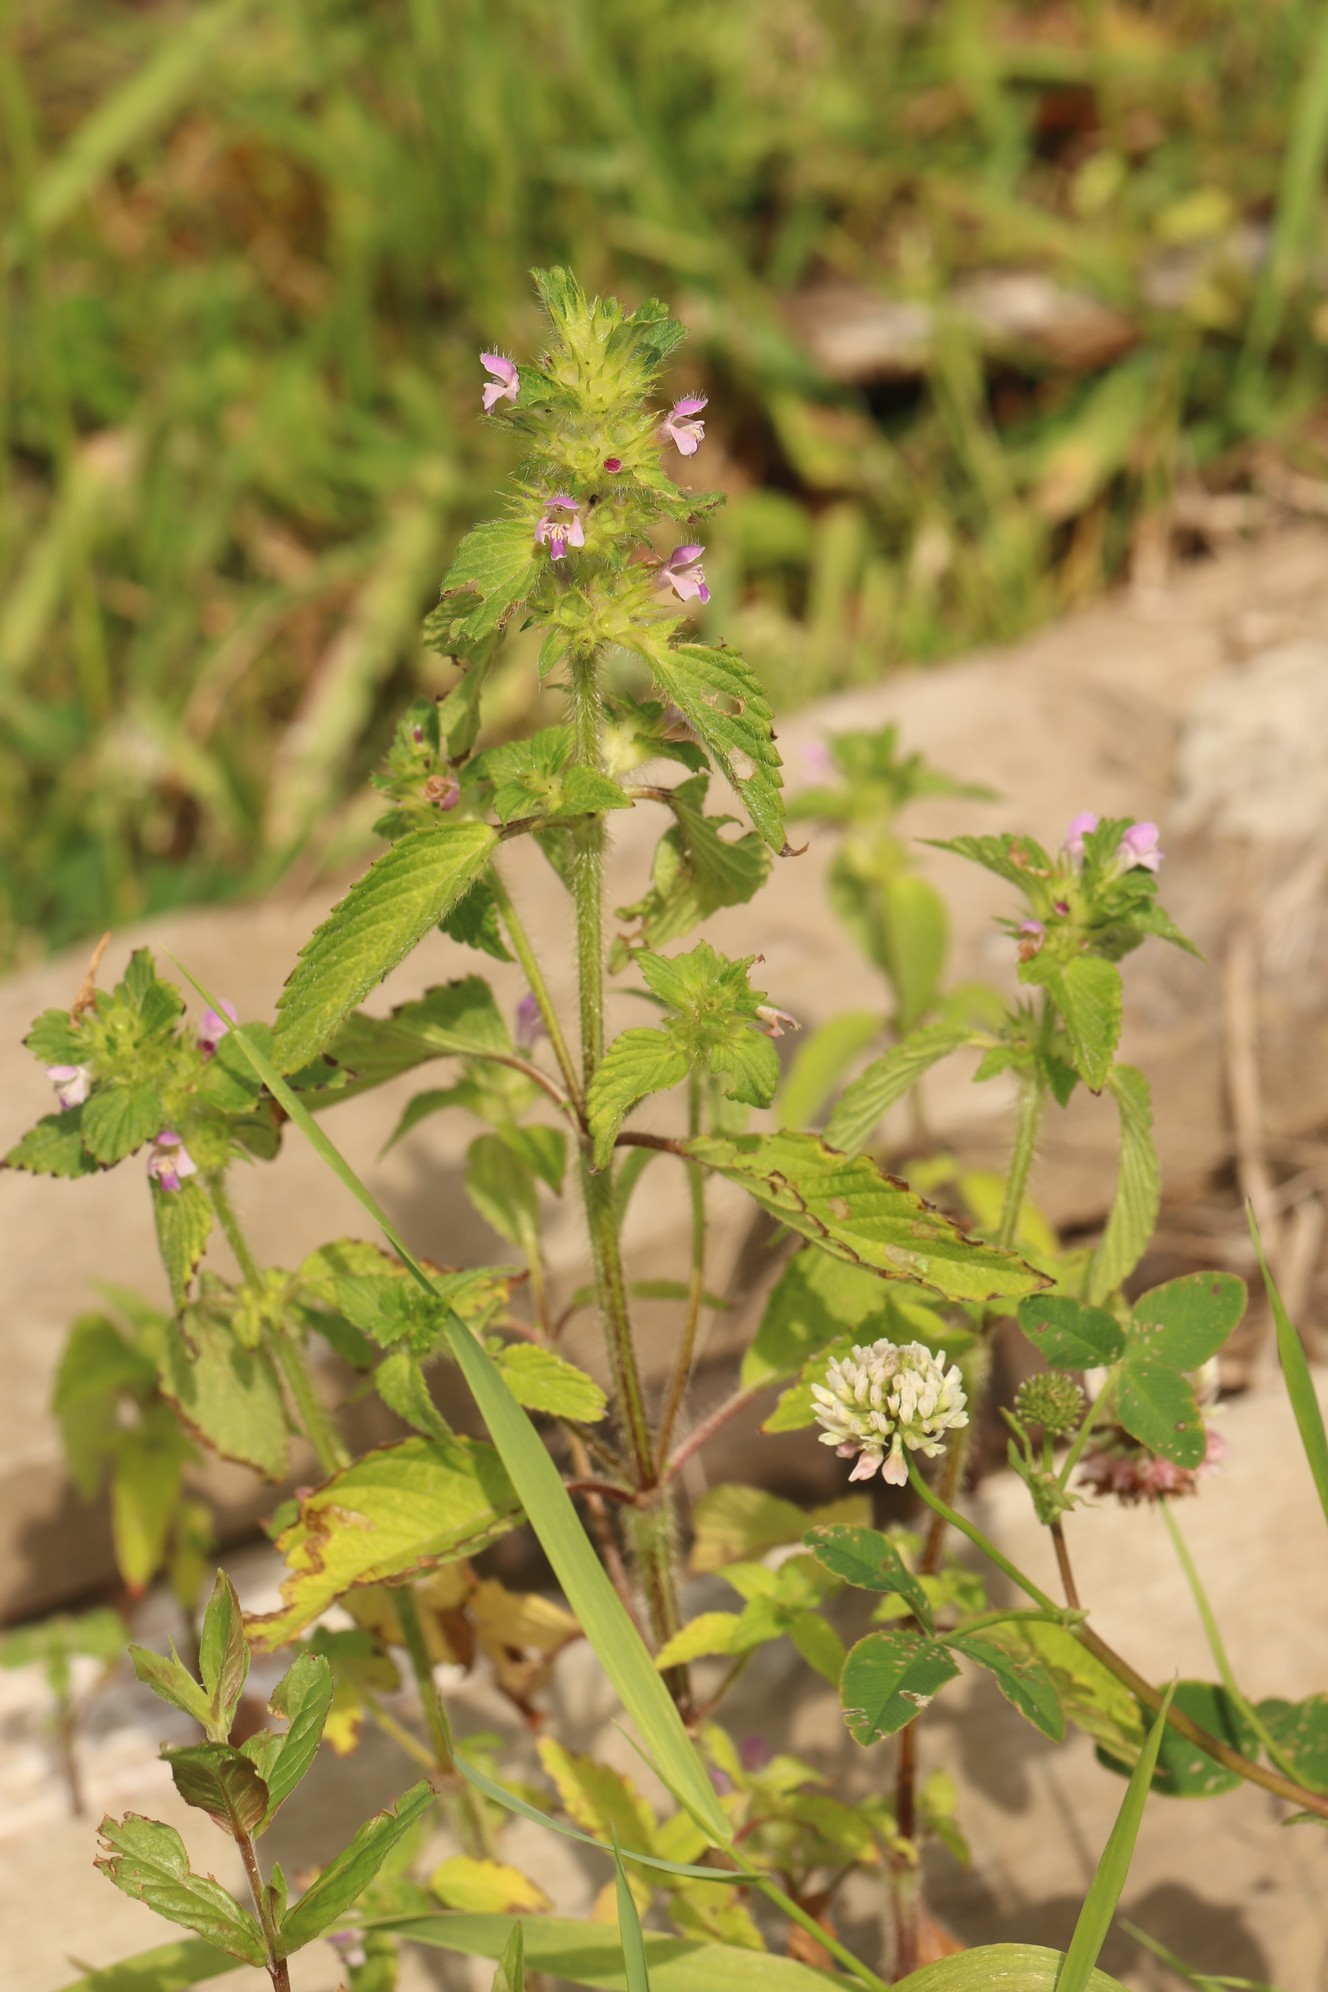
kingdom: Plantae
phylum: Tracheophyta
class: Magnoliopsida
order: Lamiales
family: Lamiaceae
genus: Galeopsis
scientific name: Galeopsis bifida
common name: Bifid hemp-nettle
